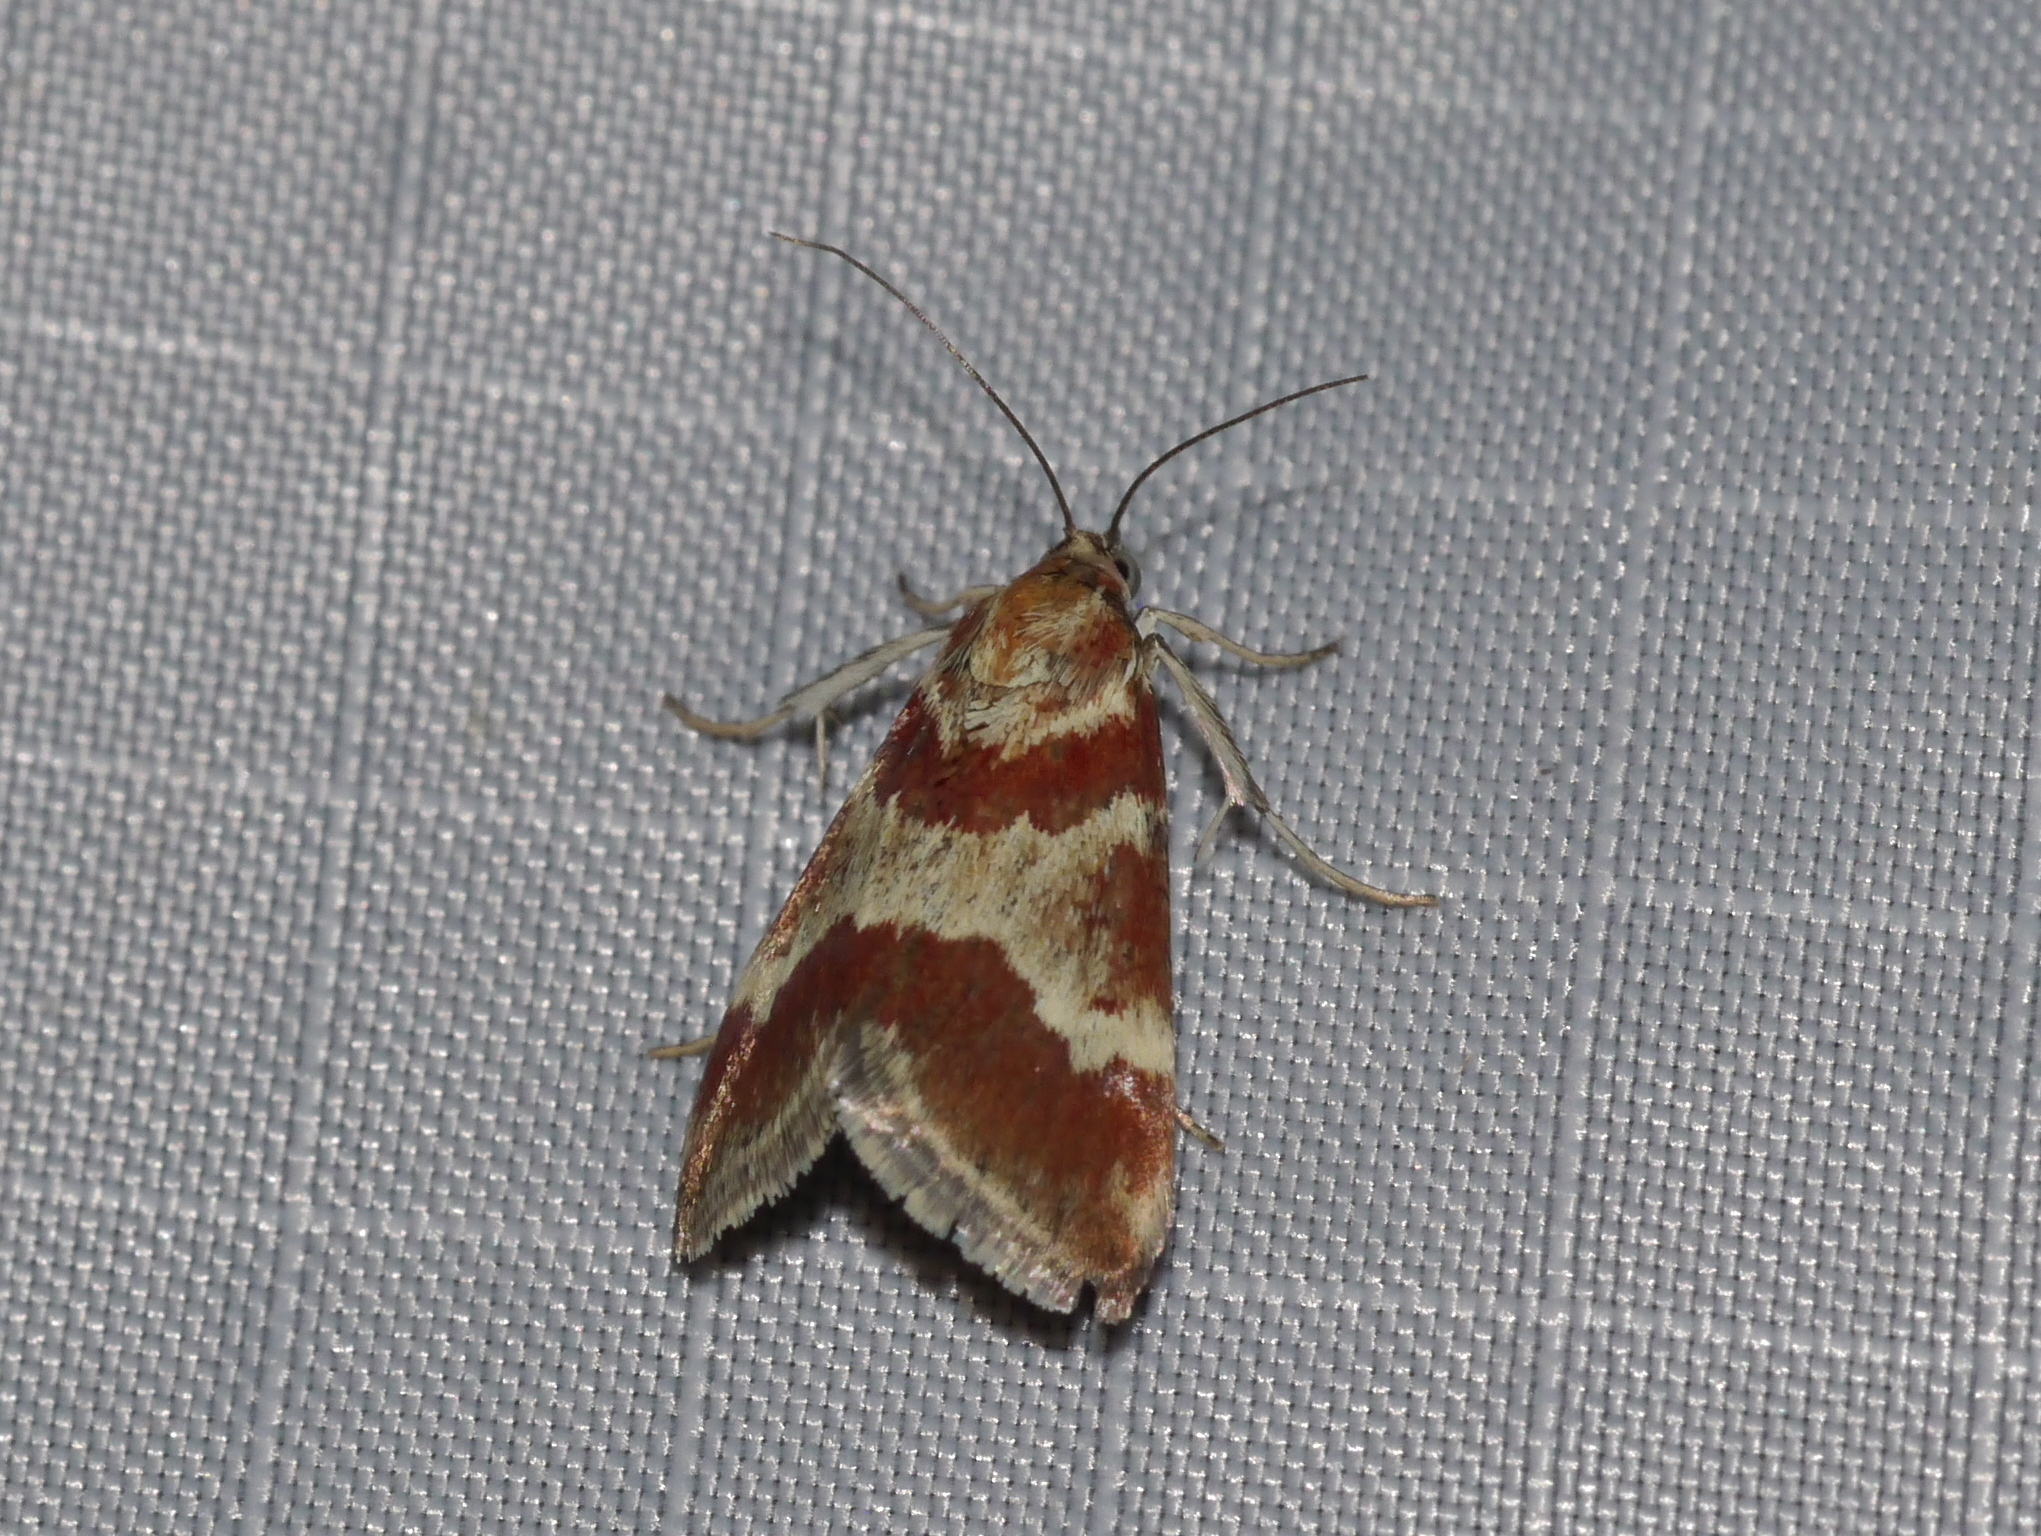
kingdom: Animalia
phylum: Arthropoda
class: Insecta
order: Lepidoptera
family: Crambidae
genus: Noctuelia
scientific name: Noctuelia Mimoschinia rufofascialis
